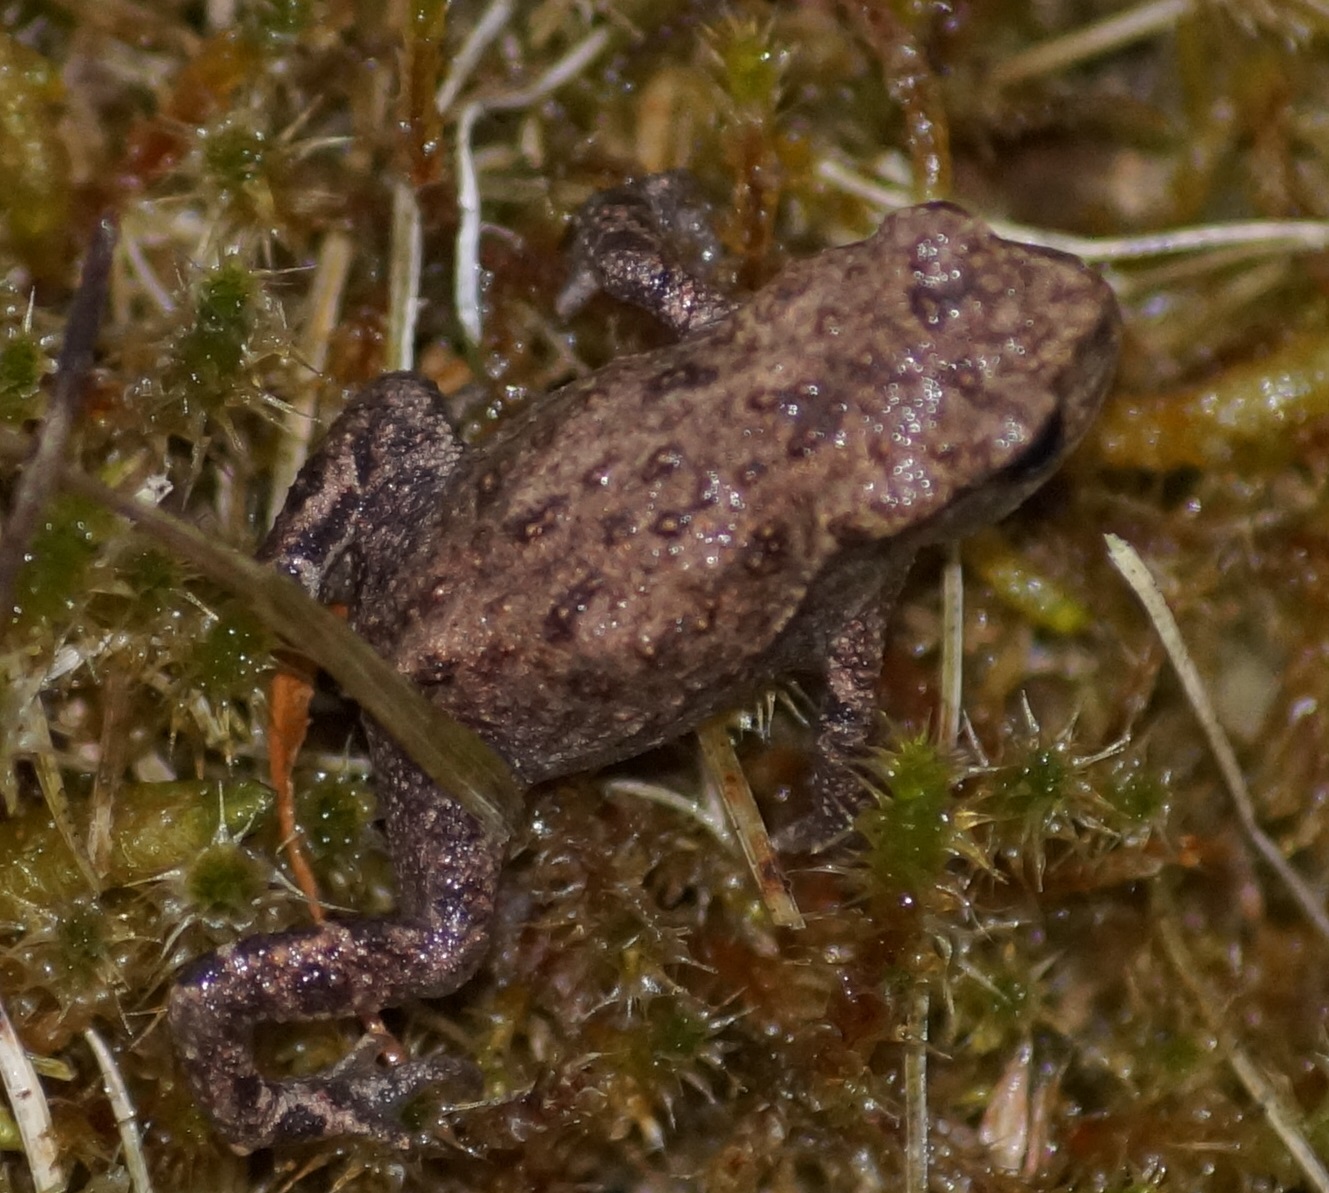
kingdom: Animalia
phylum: Chordata
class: Amphibia
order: Anura
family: Bufonidae
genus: Bufo
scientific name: Bufo bufo
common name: Common toad
